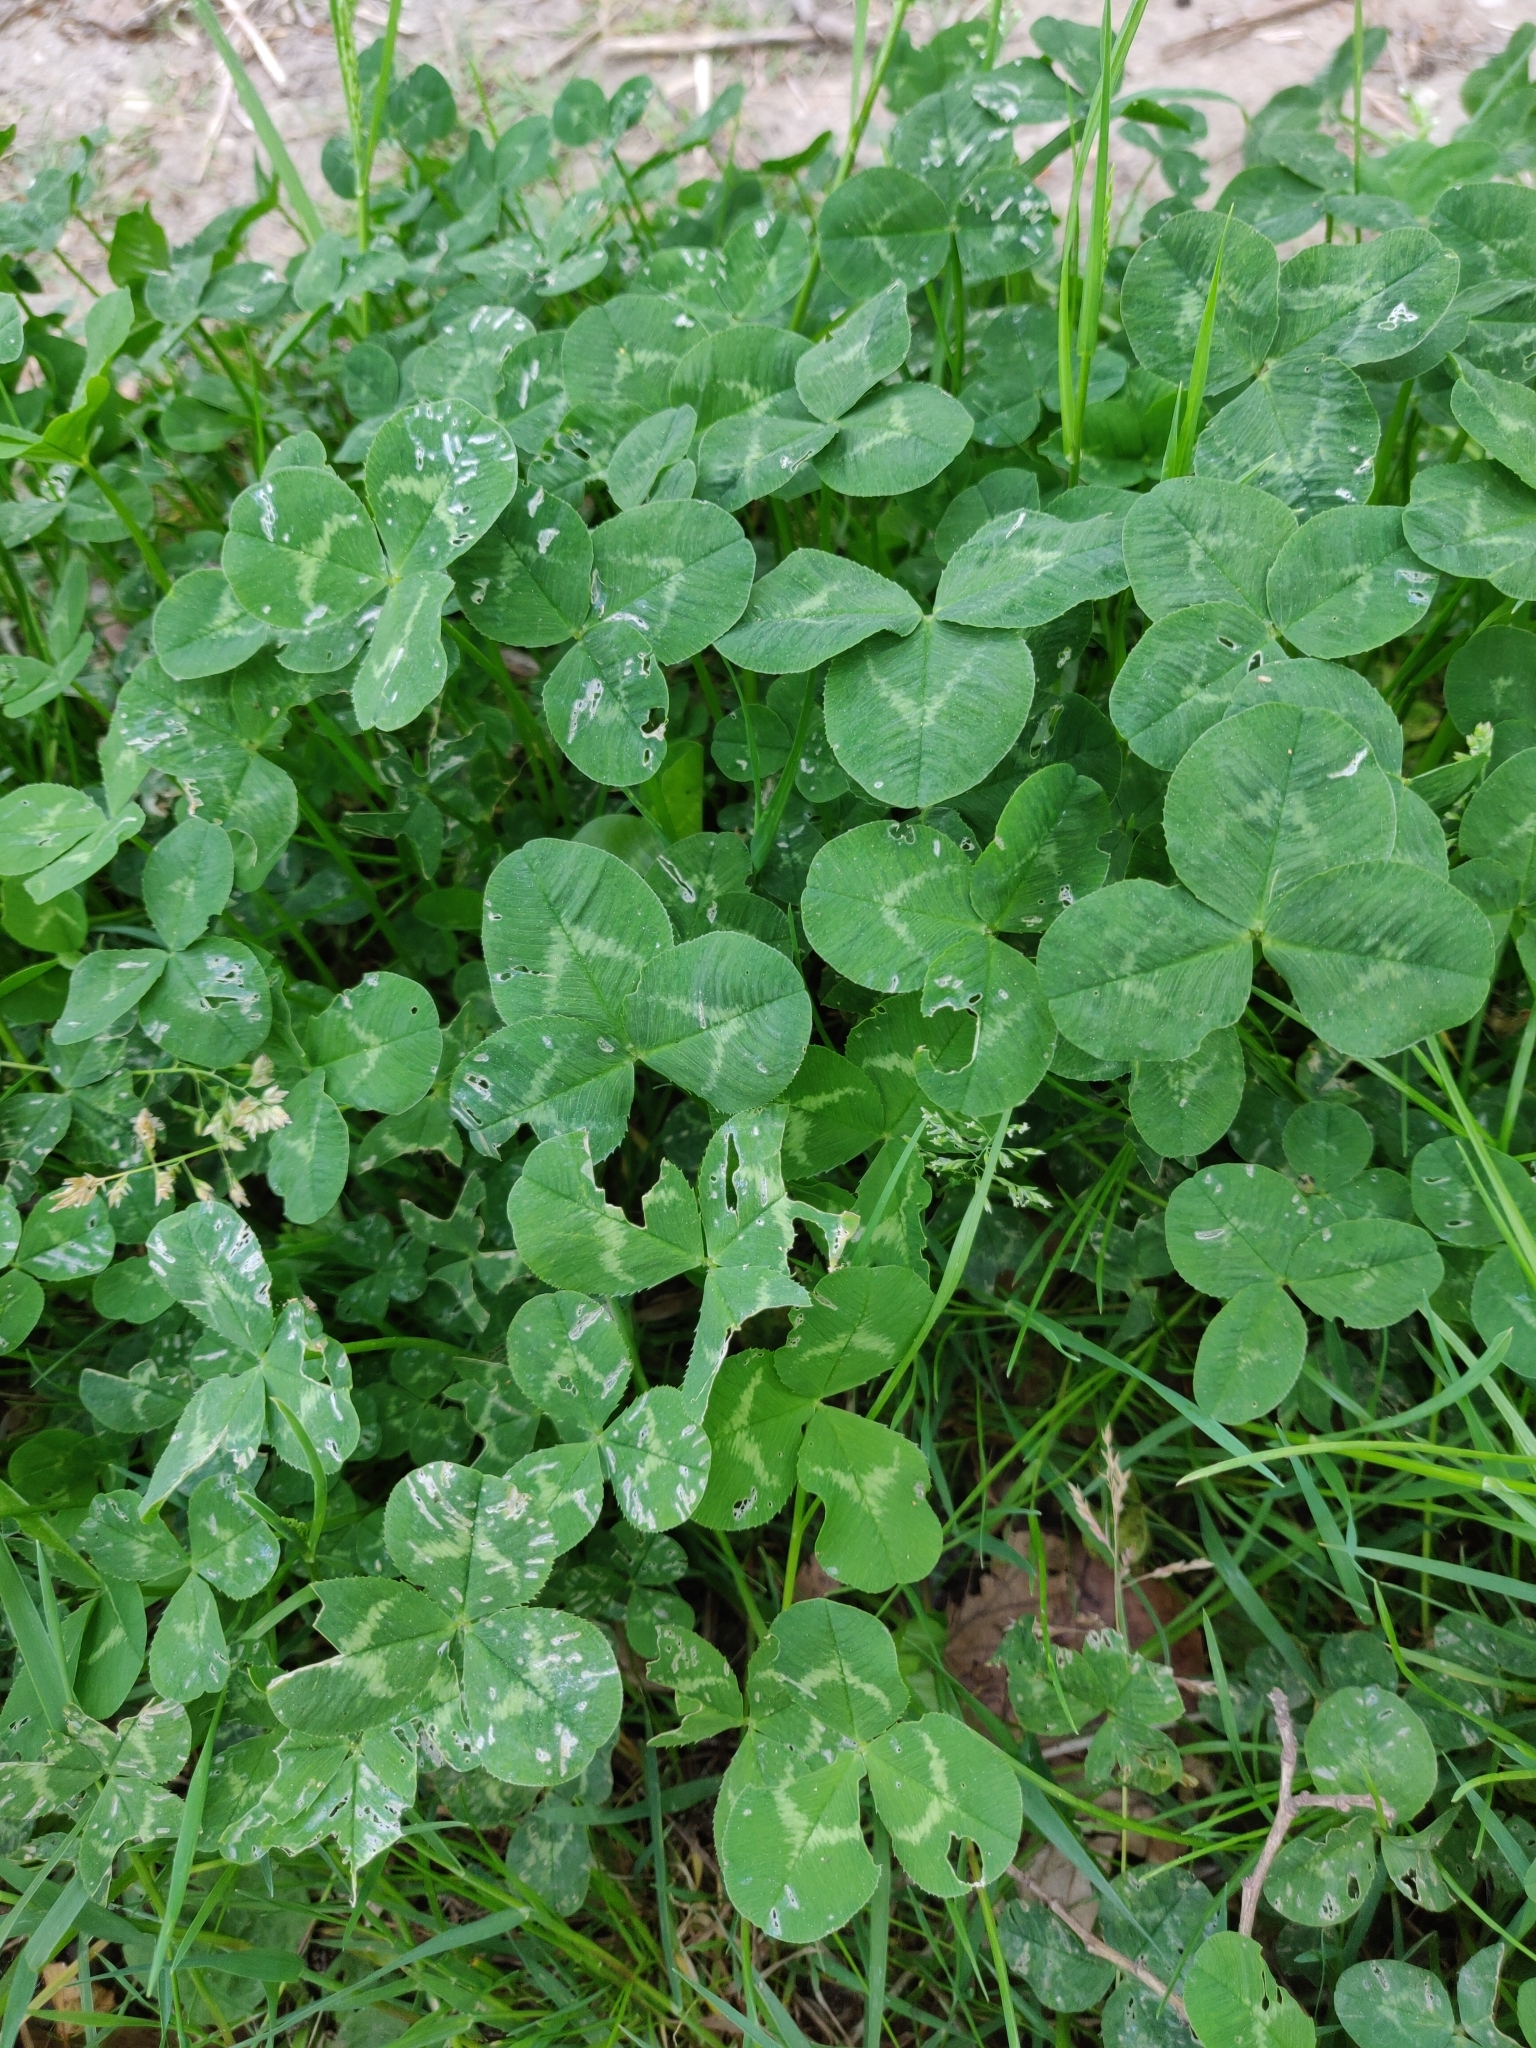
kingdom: Plantae
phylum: Tracheophyta
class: Magnoliopsida
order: Fabales
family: Fabaceae
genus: Trifolium
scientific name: Trifolium repens
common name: White clover
